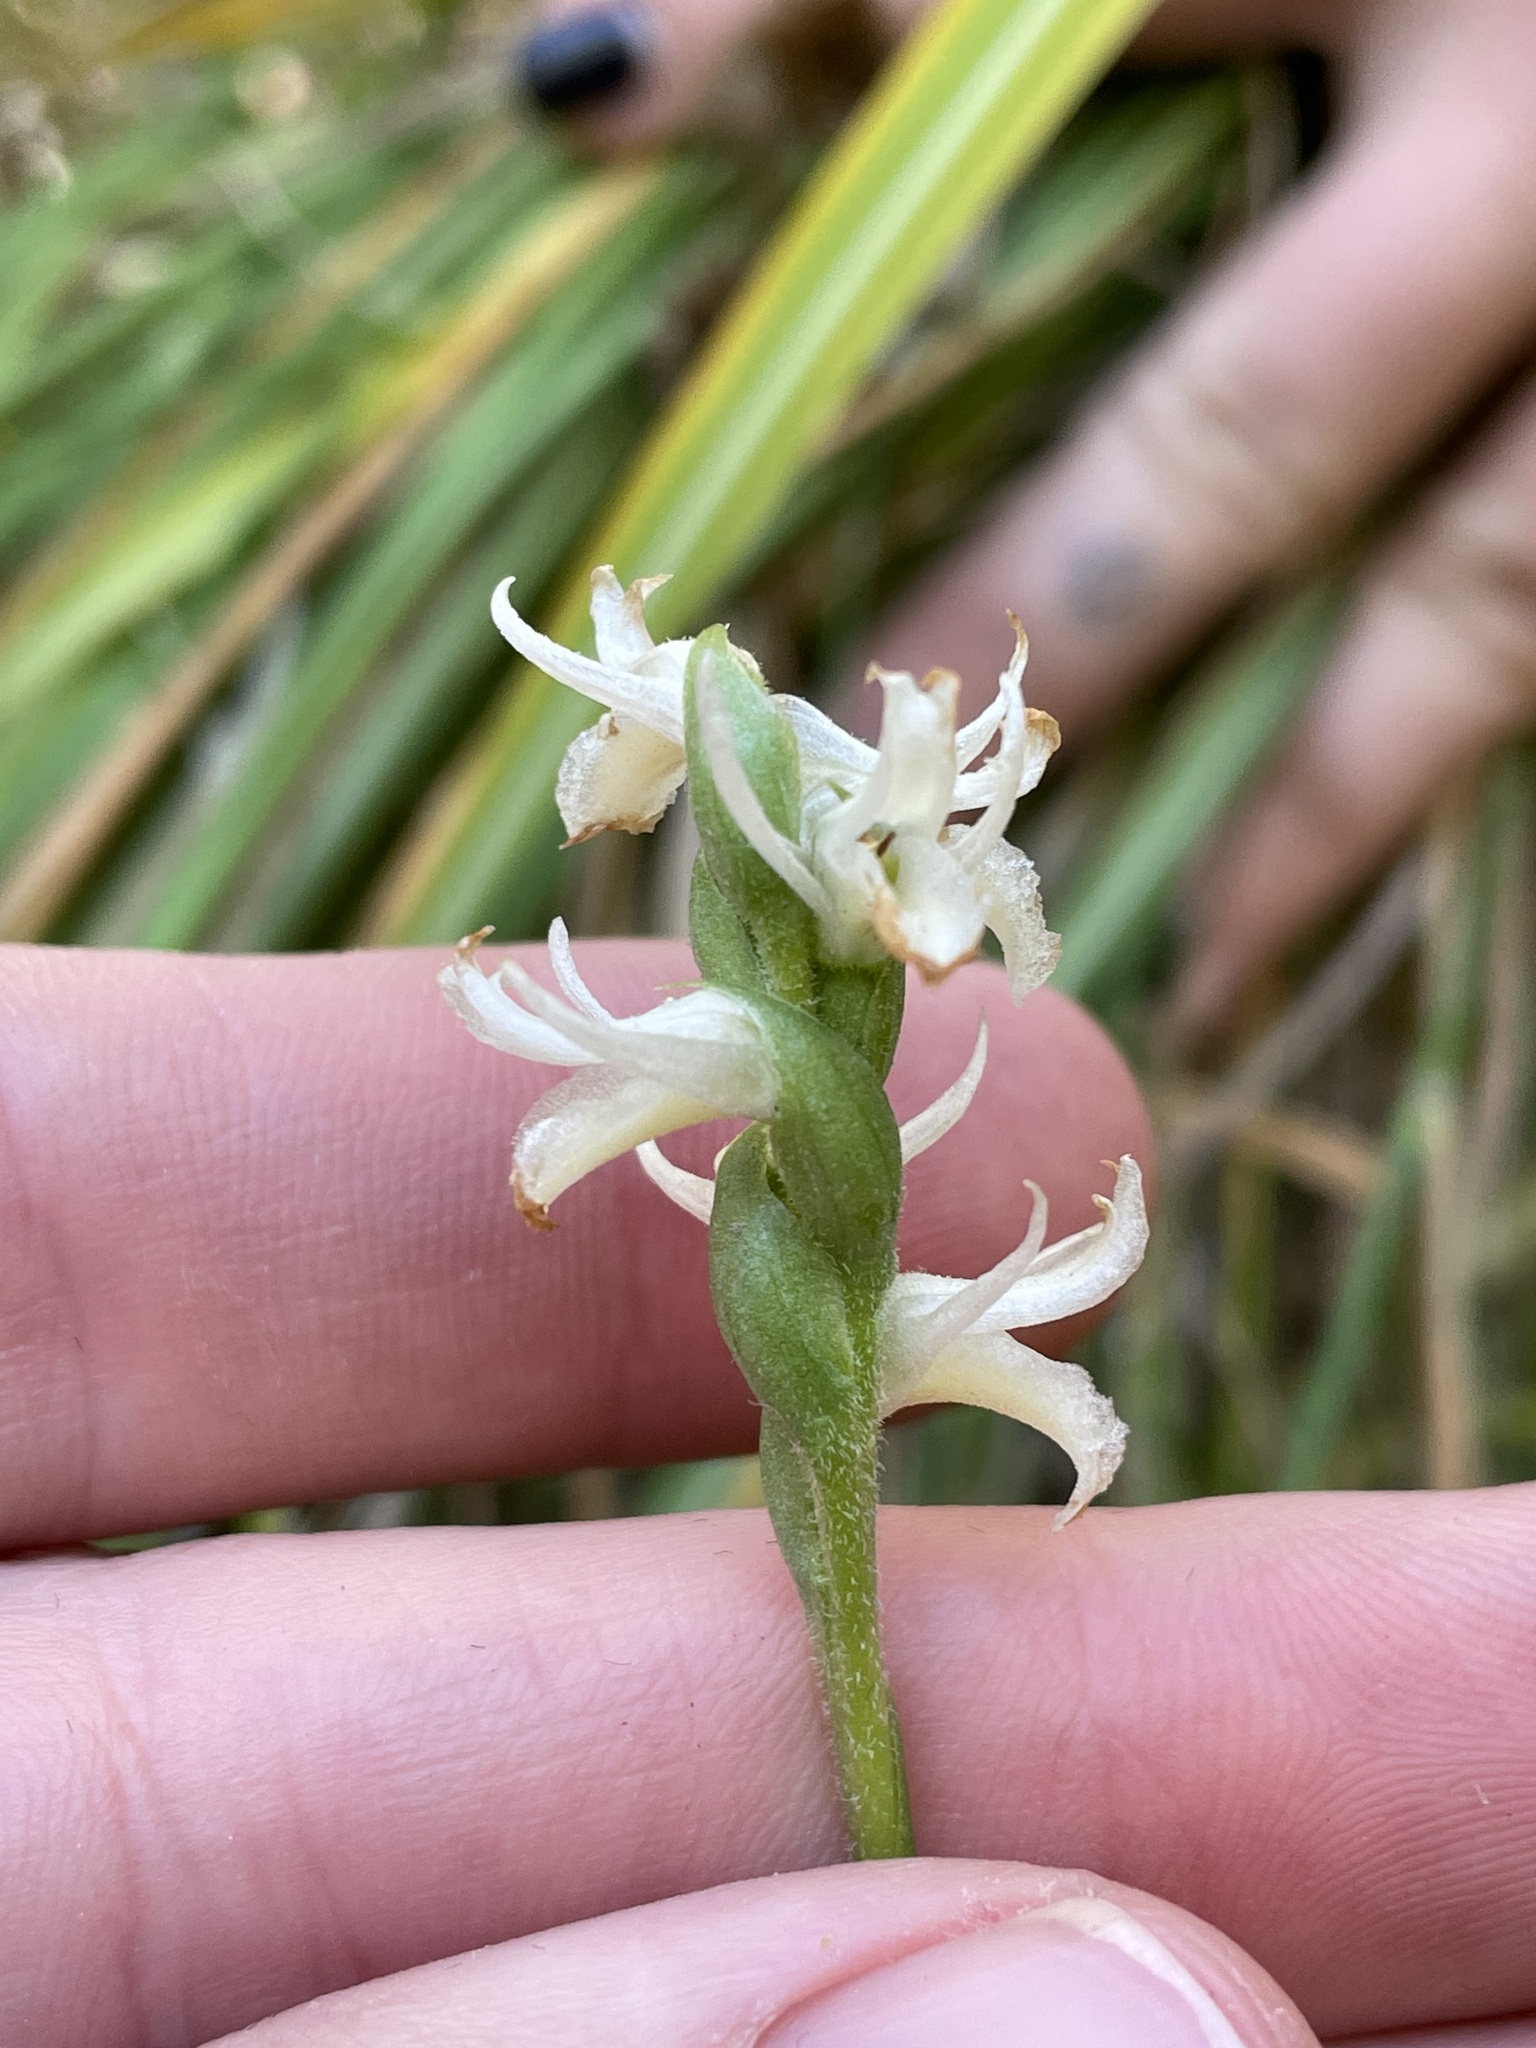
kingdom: Plantae
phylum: Tracheophyta
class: Liliopsida
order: Asparagales
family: Orchidaceae
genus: Spiranthes
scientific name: Spiranthes magnicamporum
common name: Great plains ladies'-tresses
